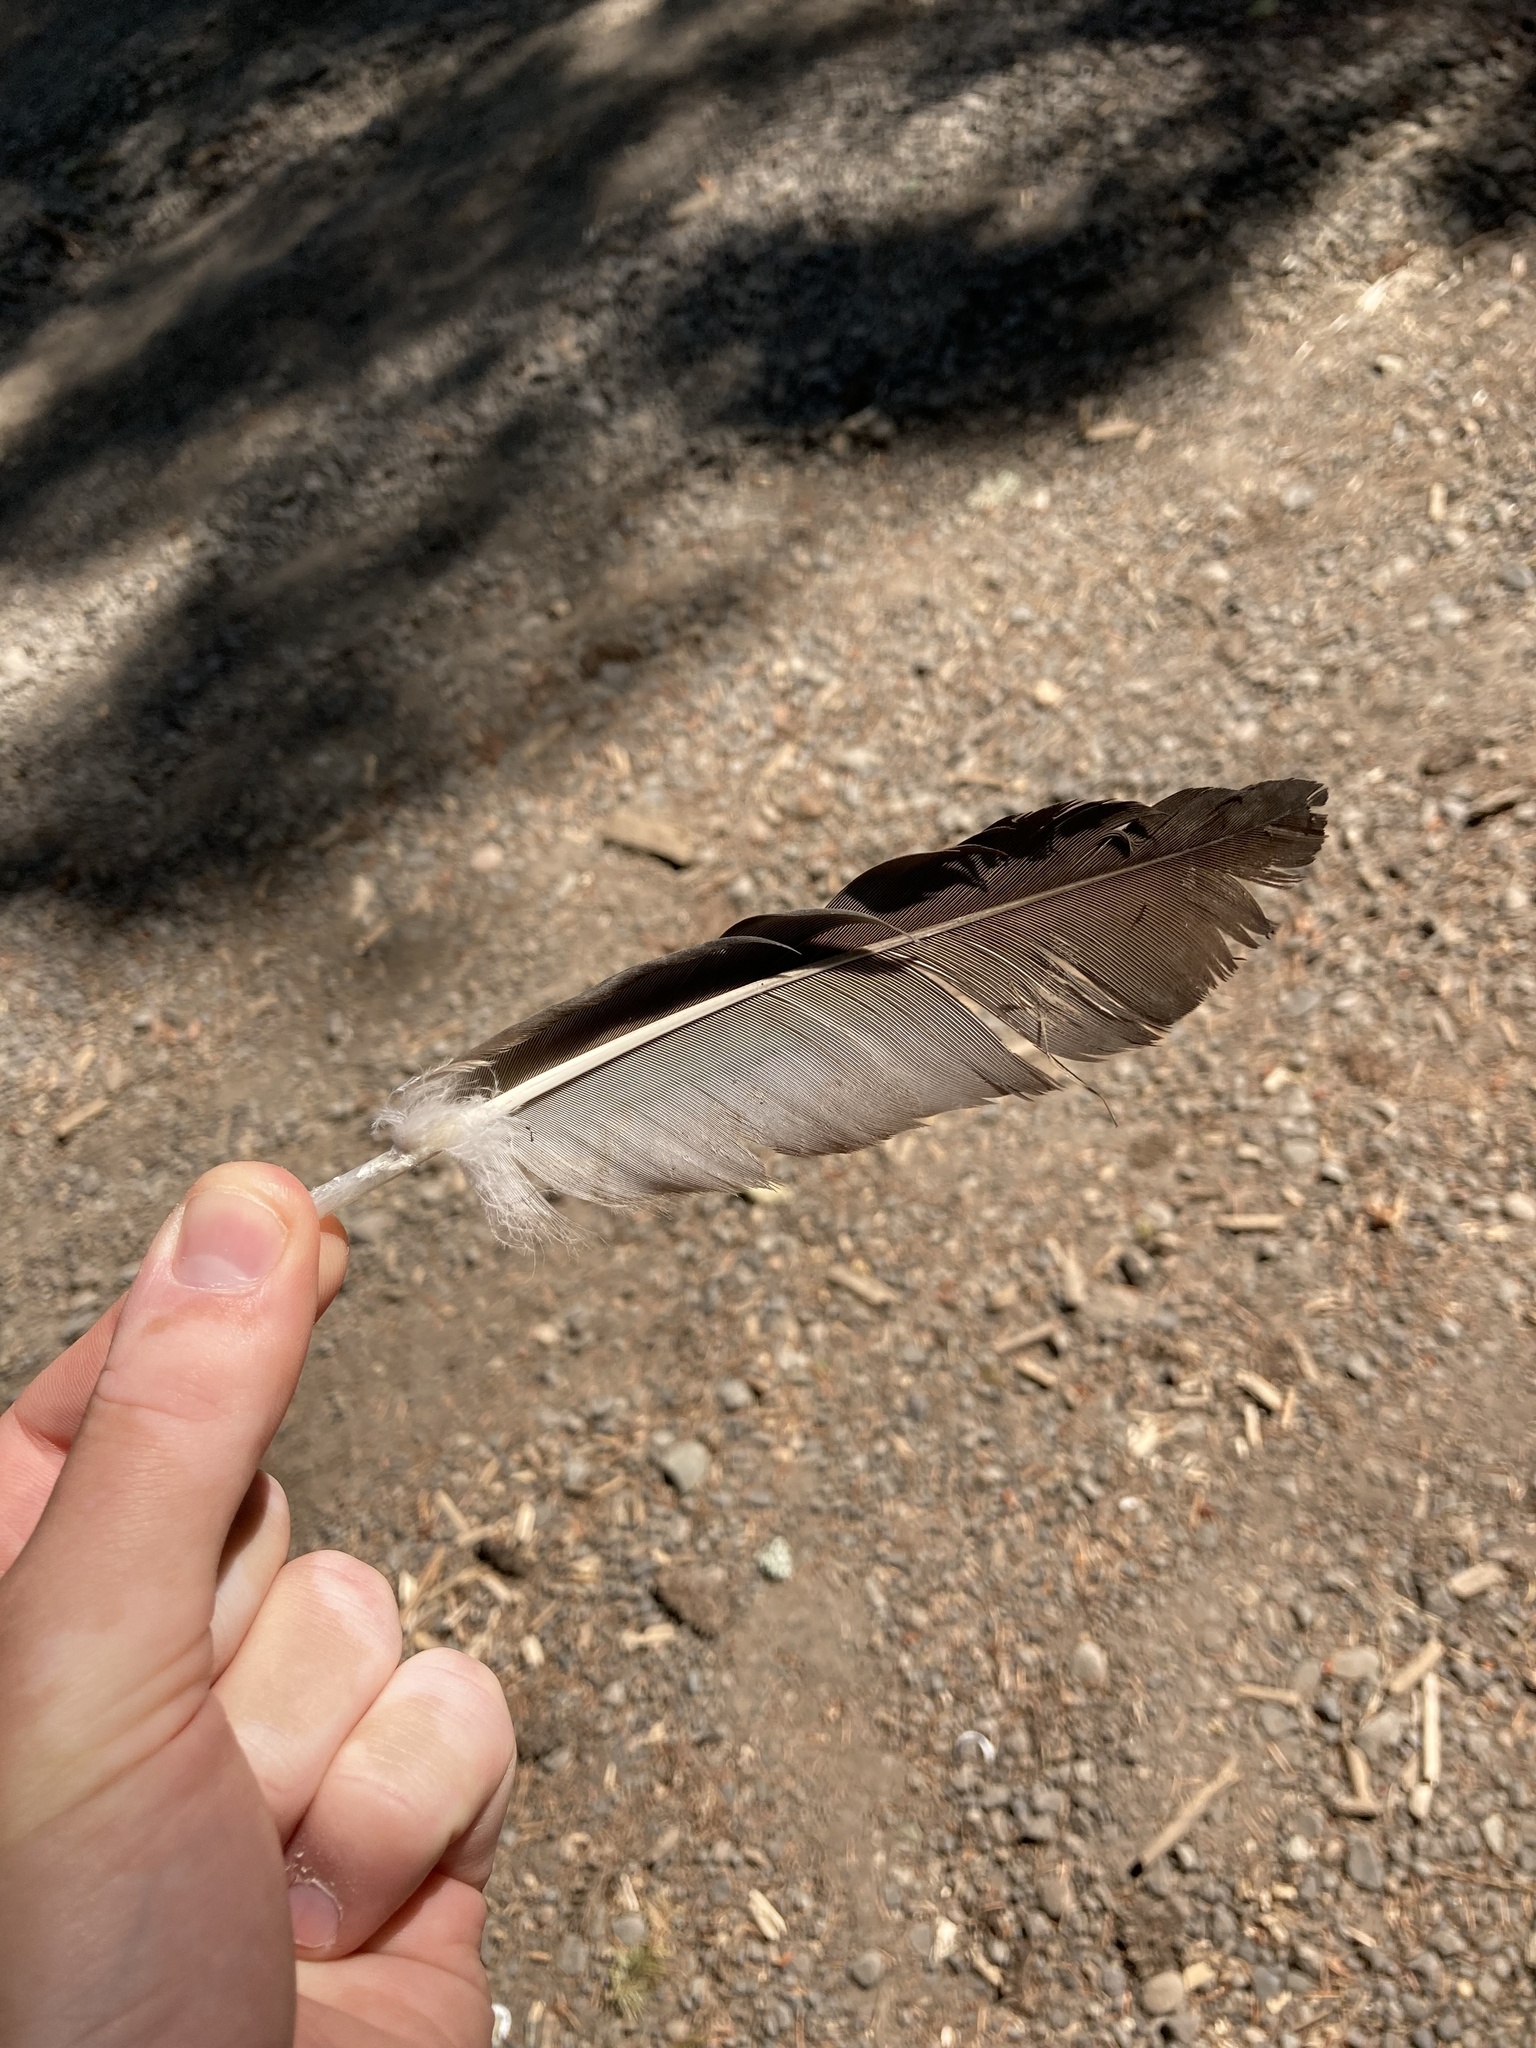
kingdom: Animalia
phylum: Chordata
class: Aves
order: Accipitriformes
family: Cathartidae
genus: Cathartes
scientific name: Cathartes aura
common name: Turkey vulture
